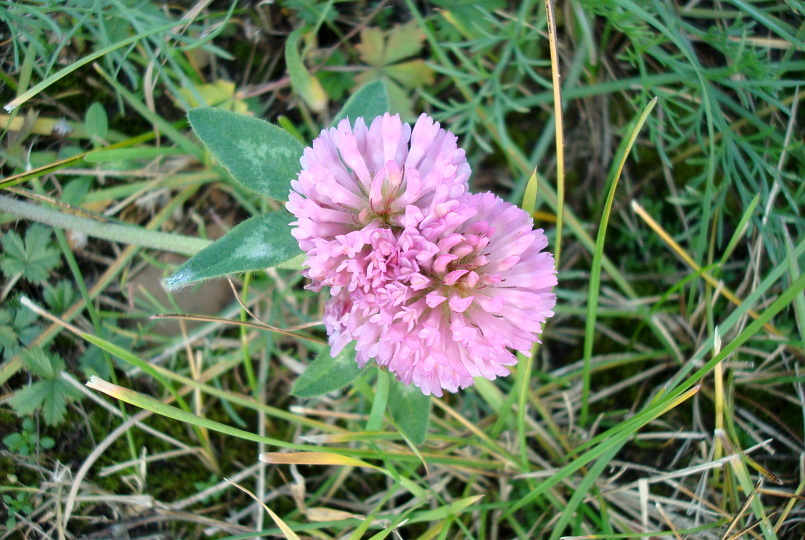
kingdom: Plantae
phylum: Tracheophyta
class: Magnoliopsida
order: Fabales
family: Fabaceae
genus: Trifolium
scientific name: Trifolium pratense
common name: Red clover
